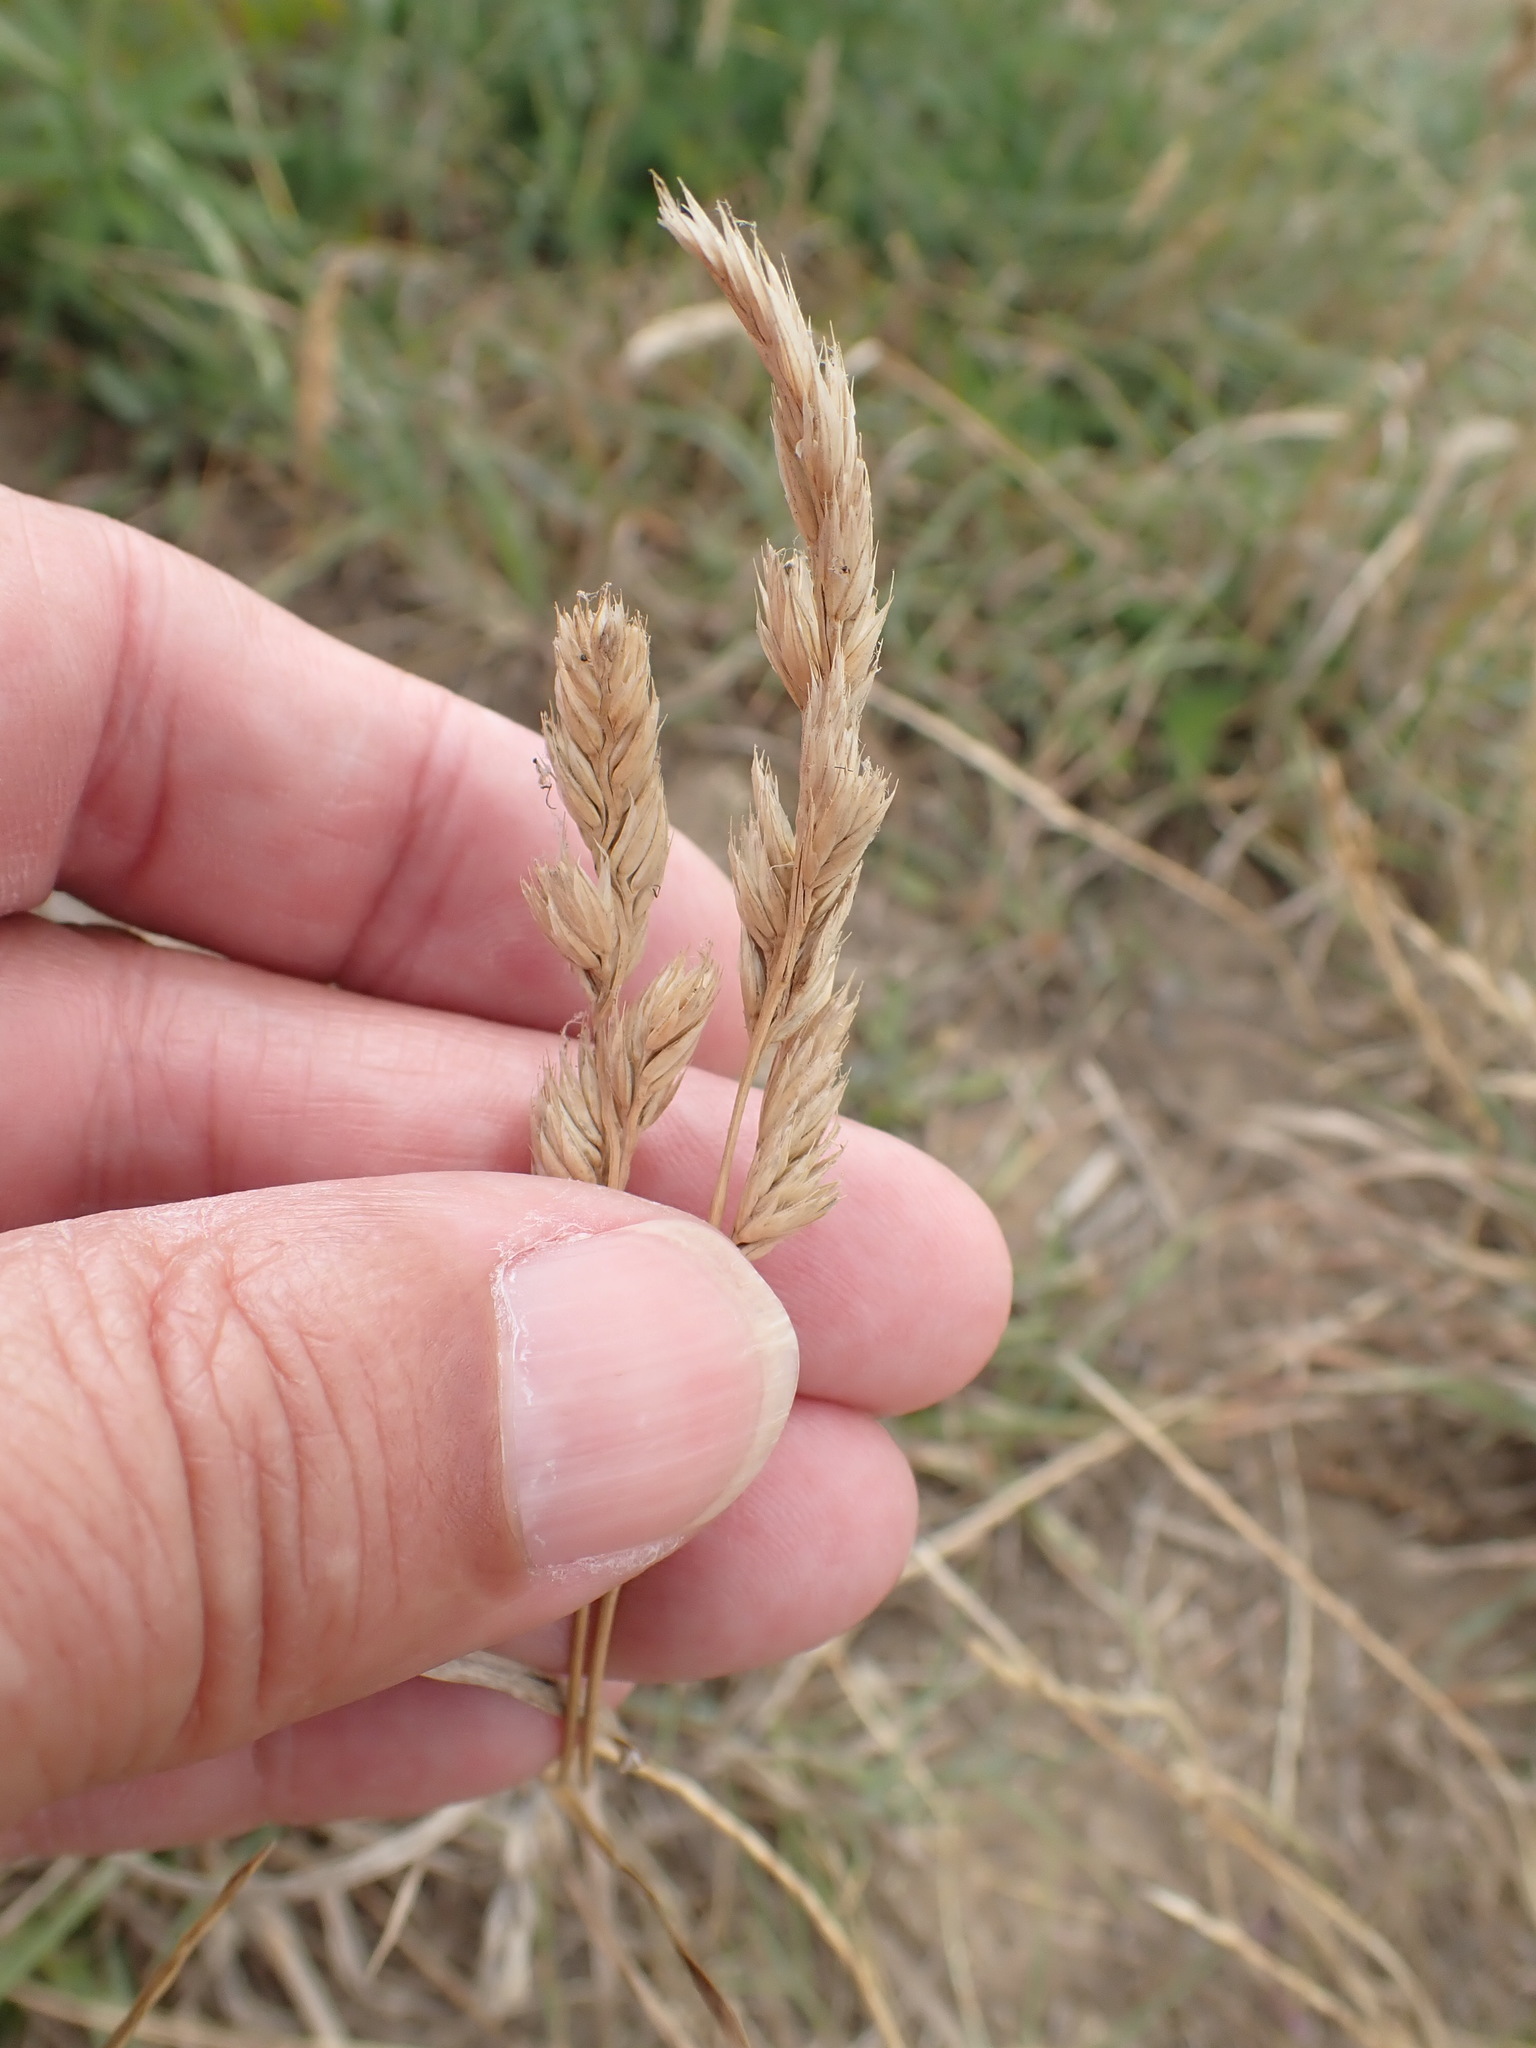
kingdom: Plantae
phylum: Tracheophyta
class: Liliopsida
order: Poales
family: Poaceae
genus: Dactylis
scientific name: Dactylis glomerata
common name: Orchardgrass
